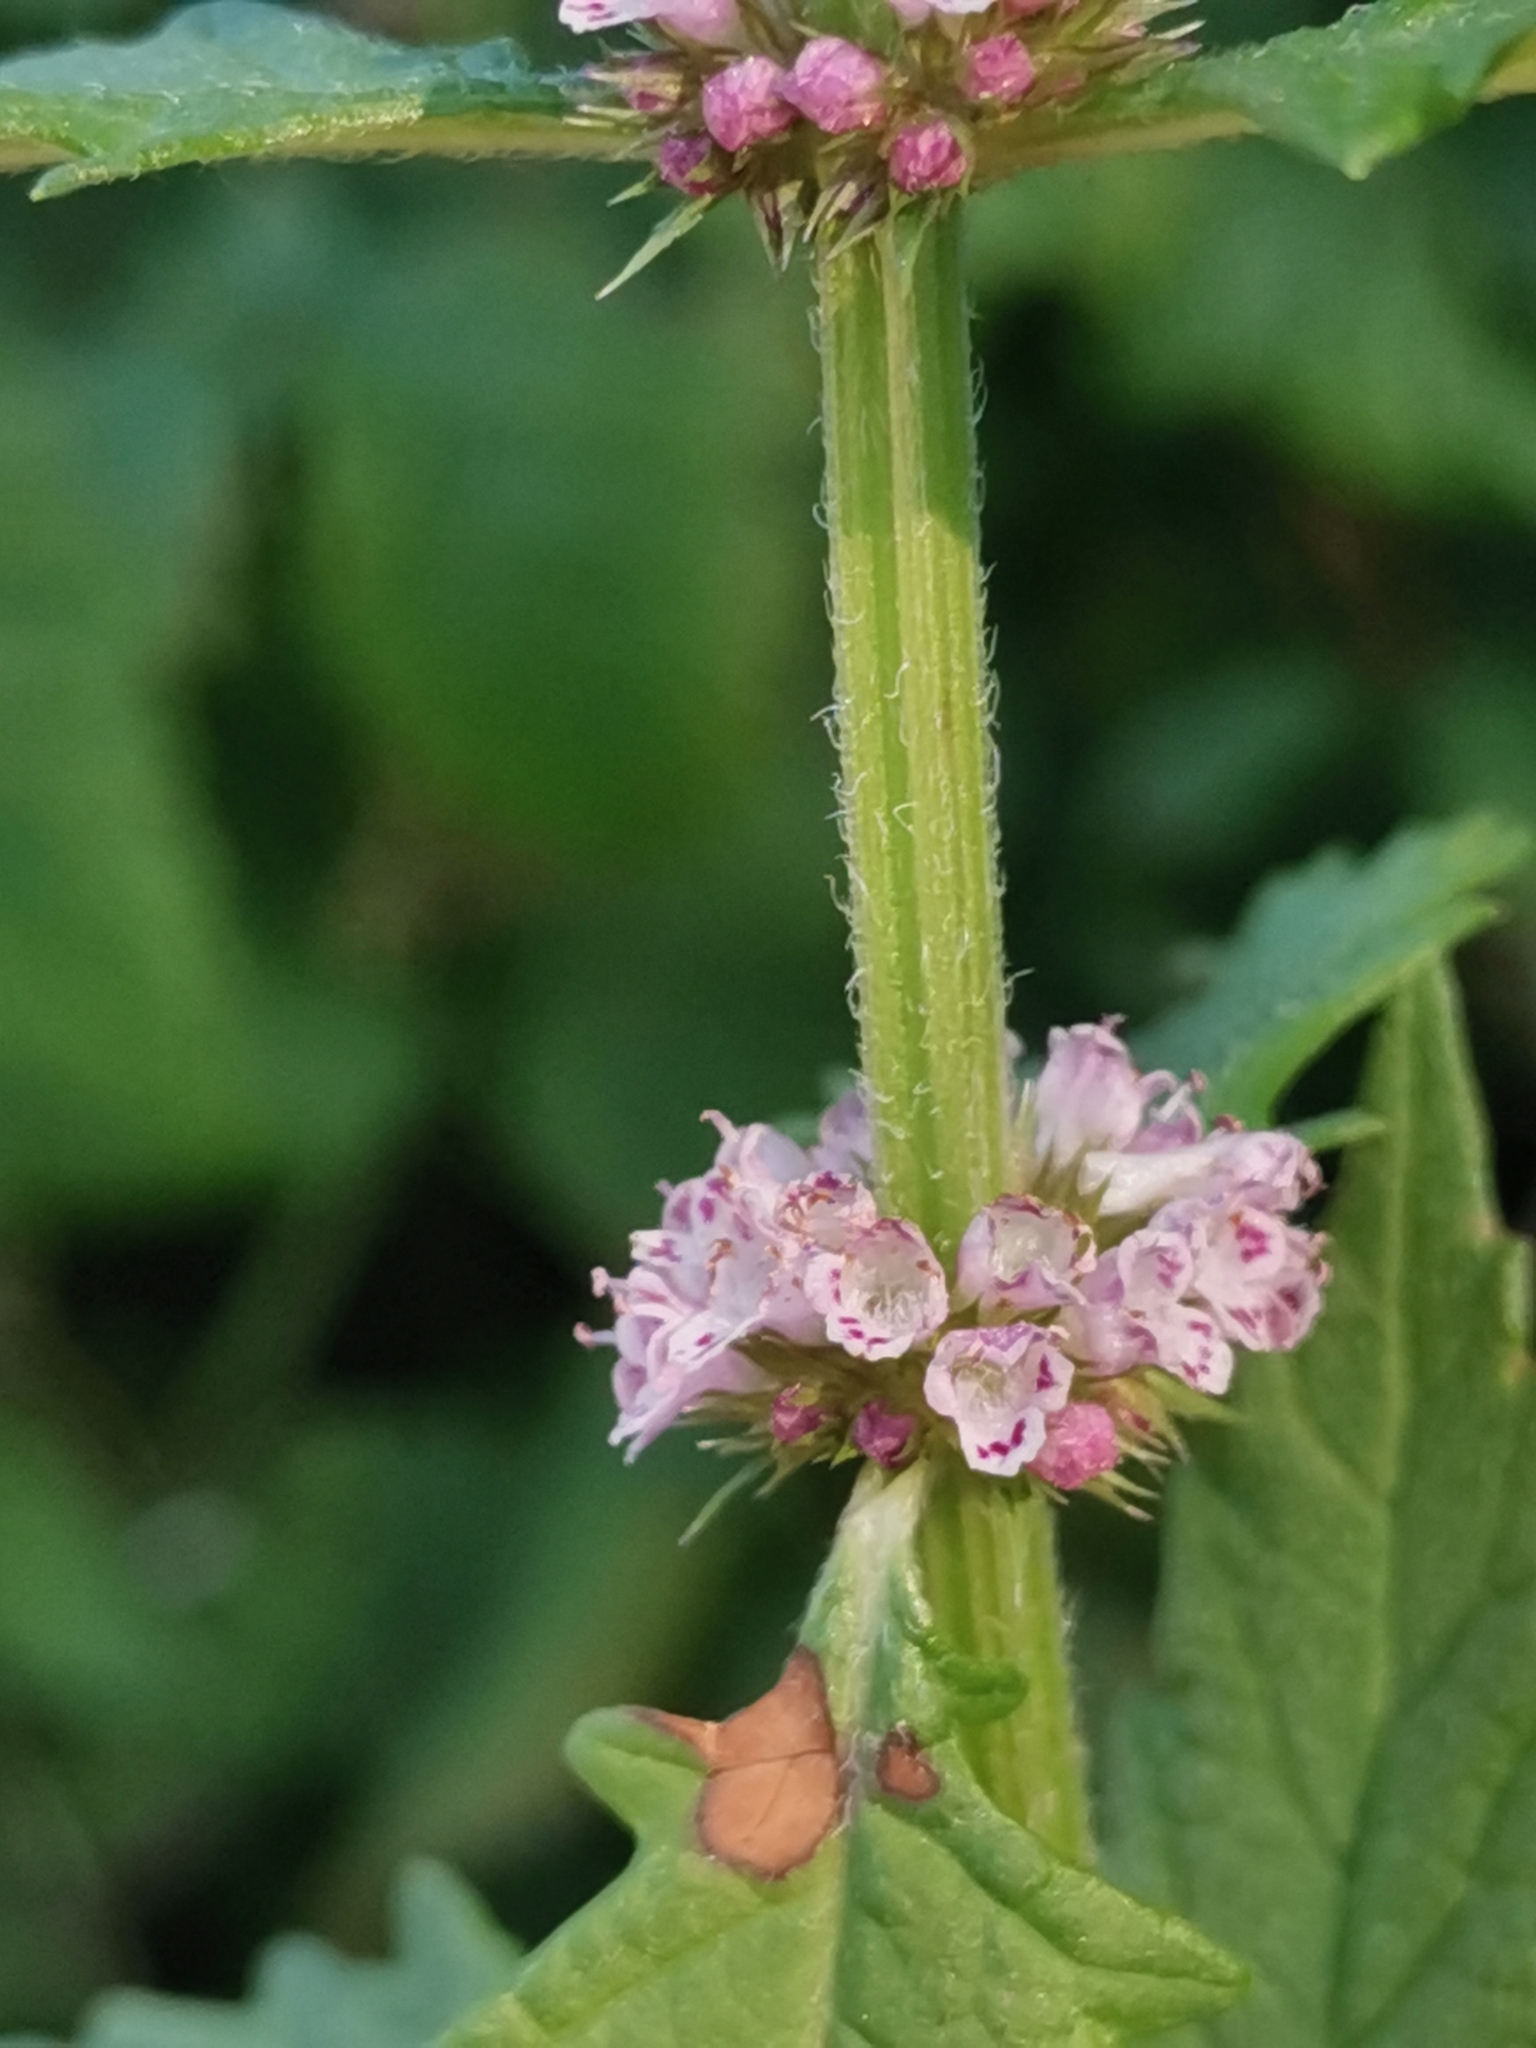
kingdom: Plantae
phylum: Tracheophyta
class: Magnoliopsida
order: Lamiales
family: Lamiaceae
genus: Lycopus
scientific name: Lycopus europaeus
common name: European bugleweed
